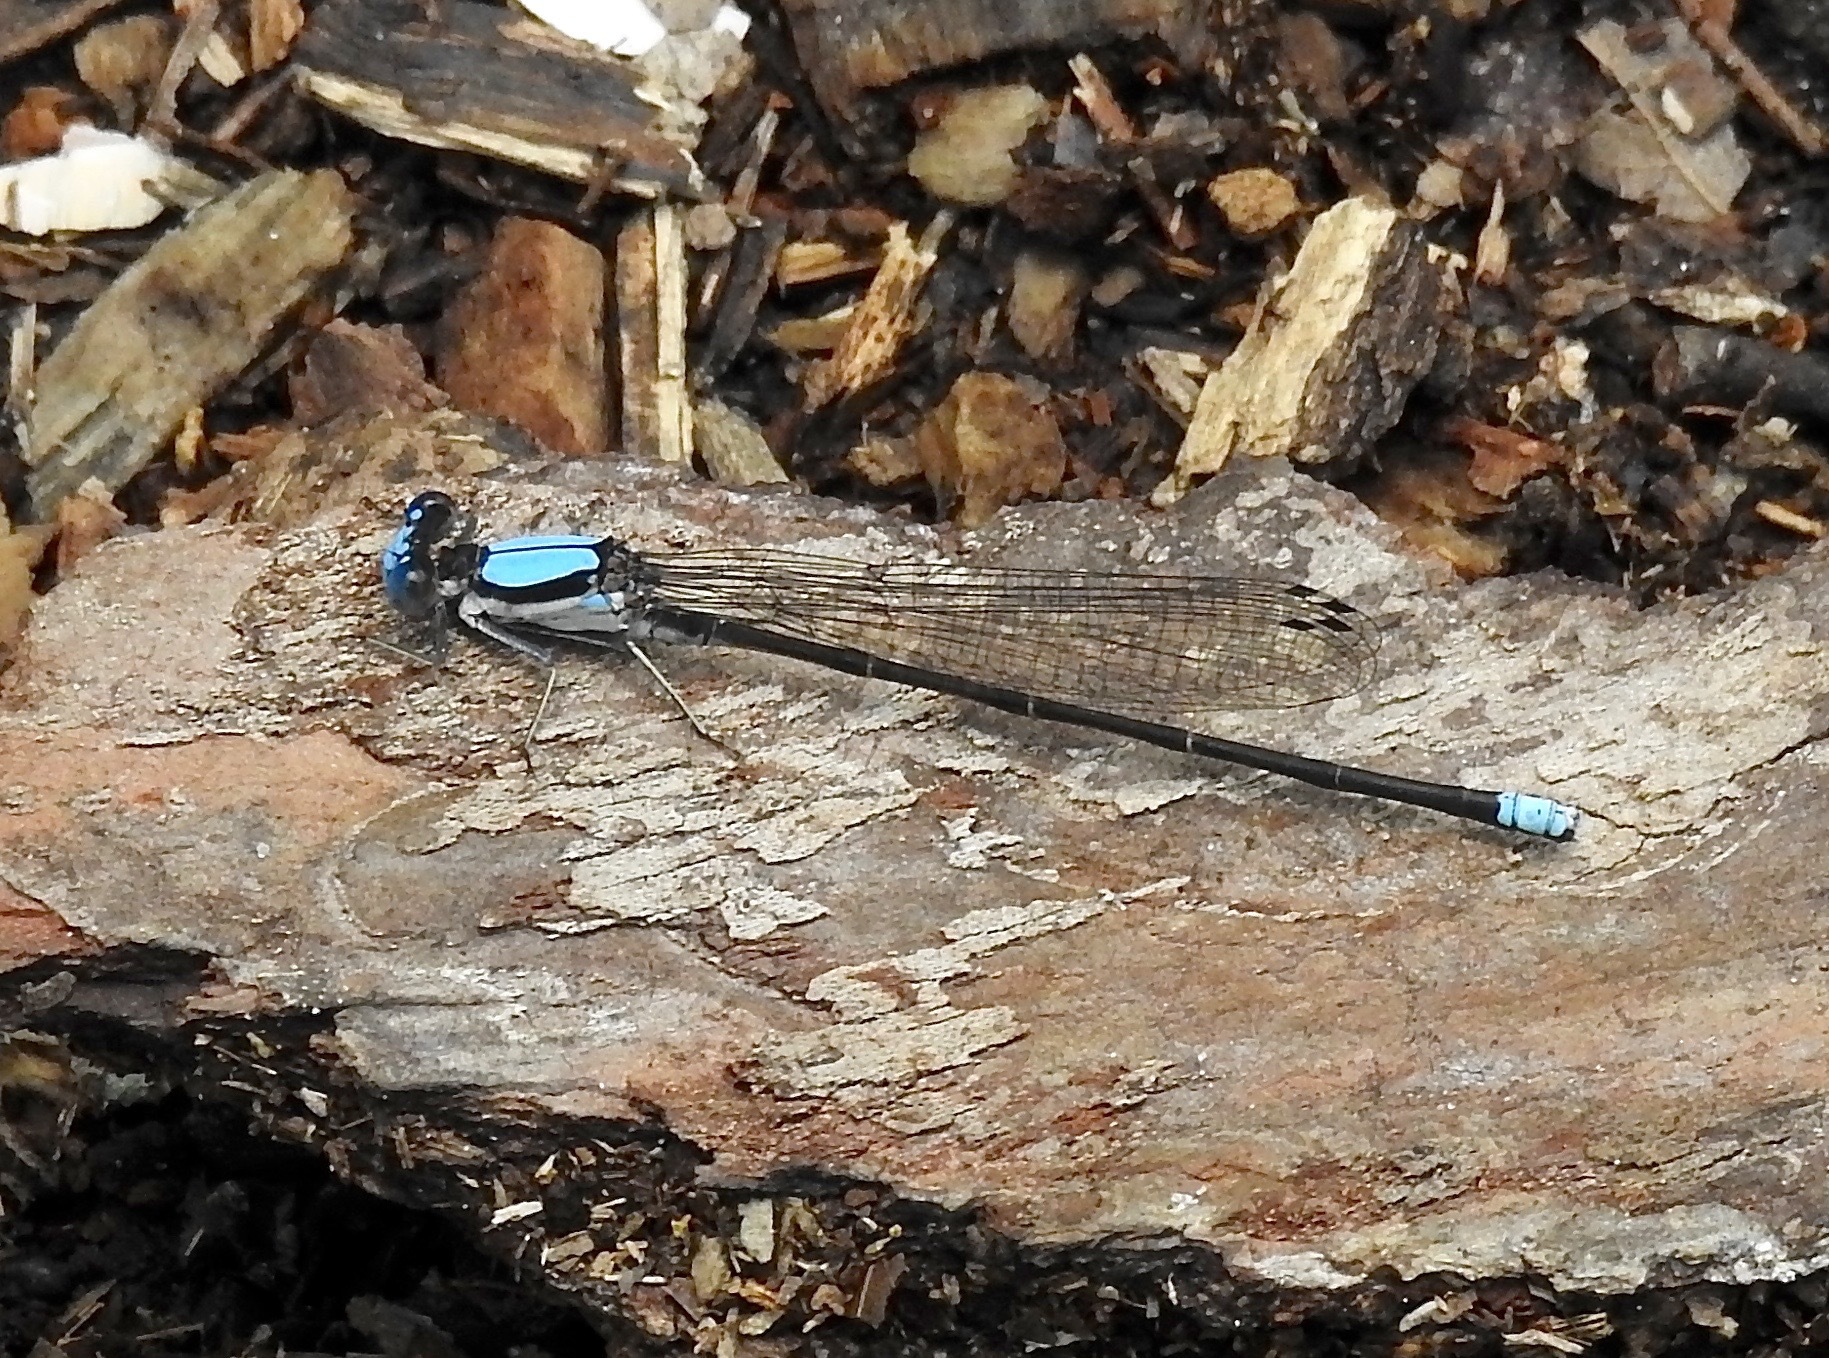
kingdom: Animalia
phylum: Arthropoda
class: Insecta
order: Odonata
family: Coenagrionidae
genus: Argia
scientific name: Argia apicalis
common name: Blue-fronted dancer
